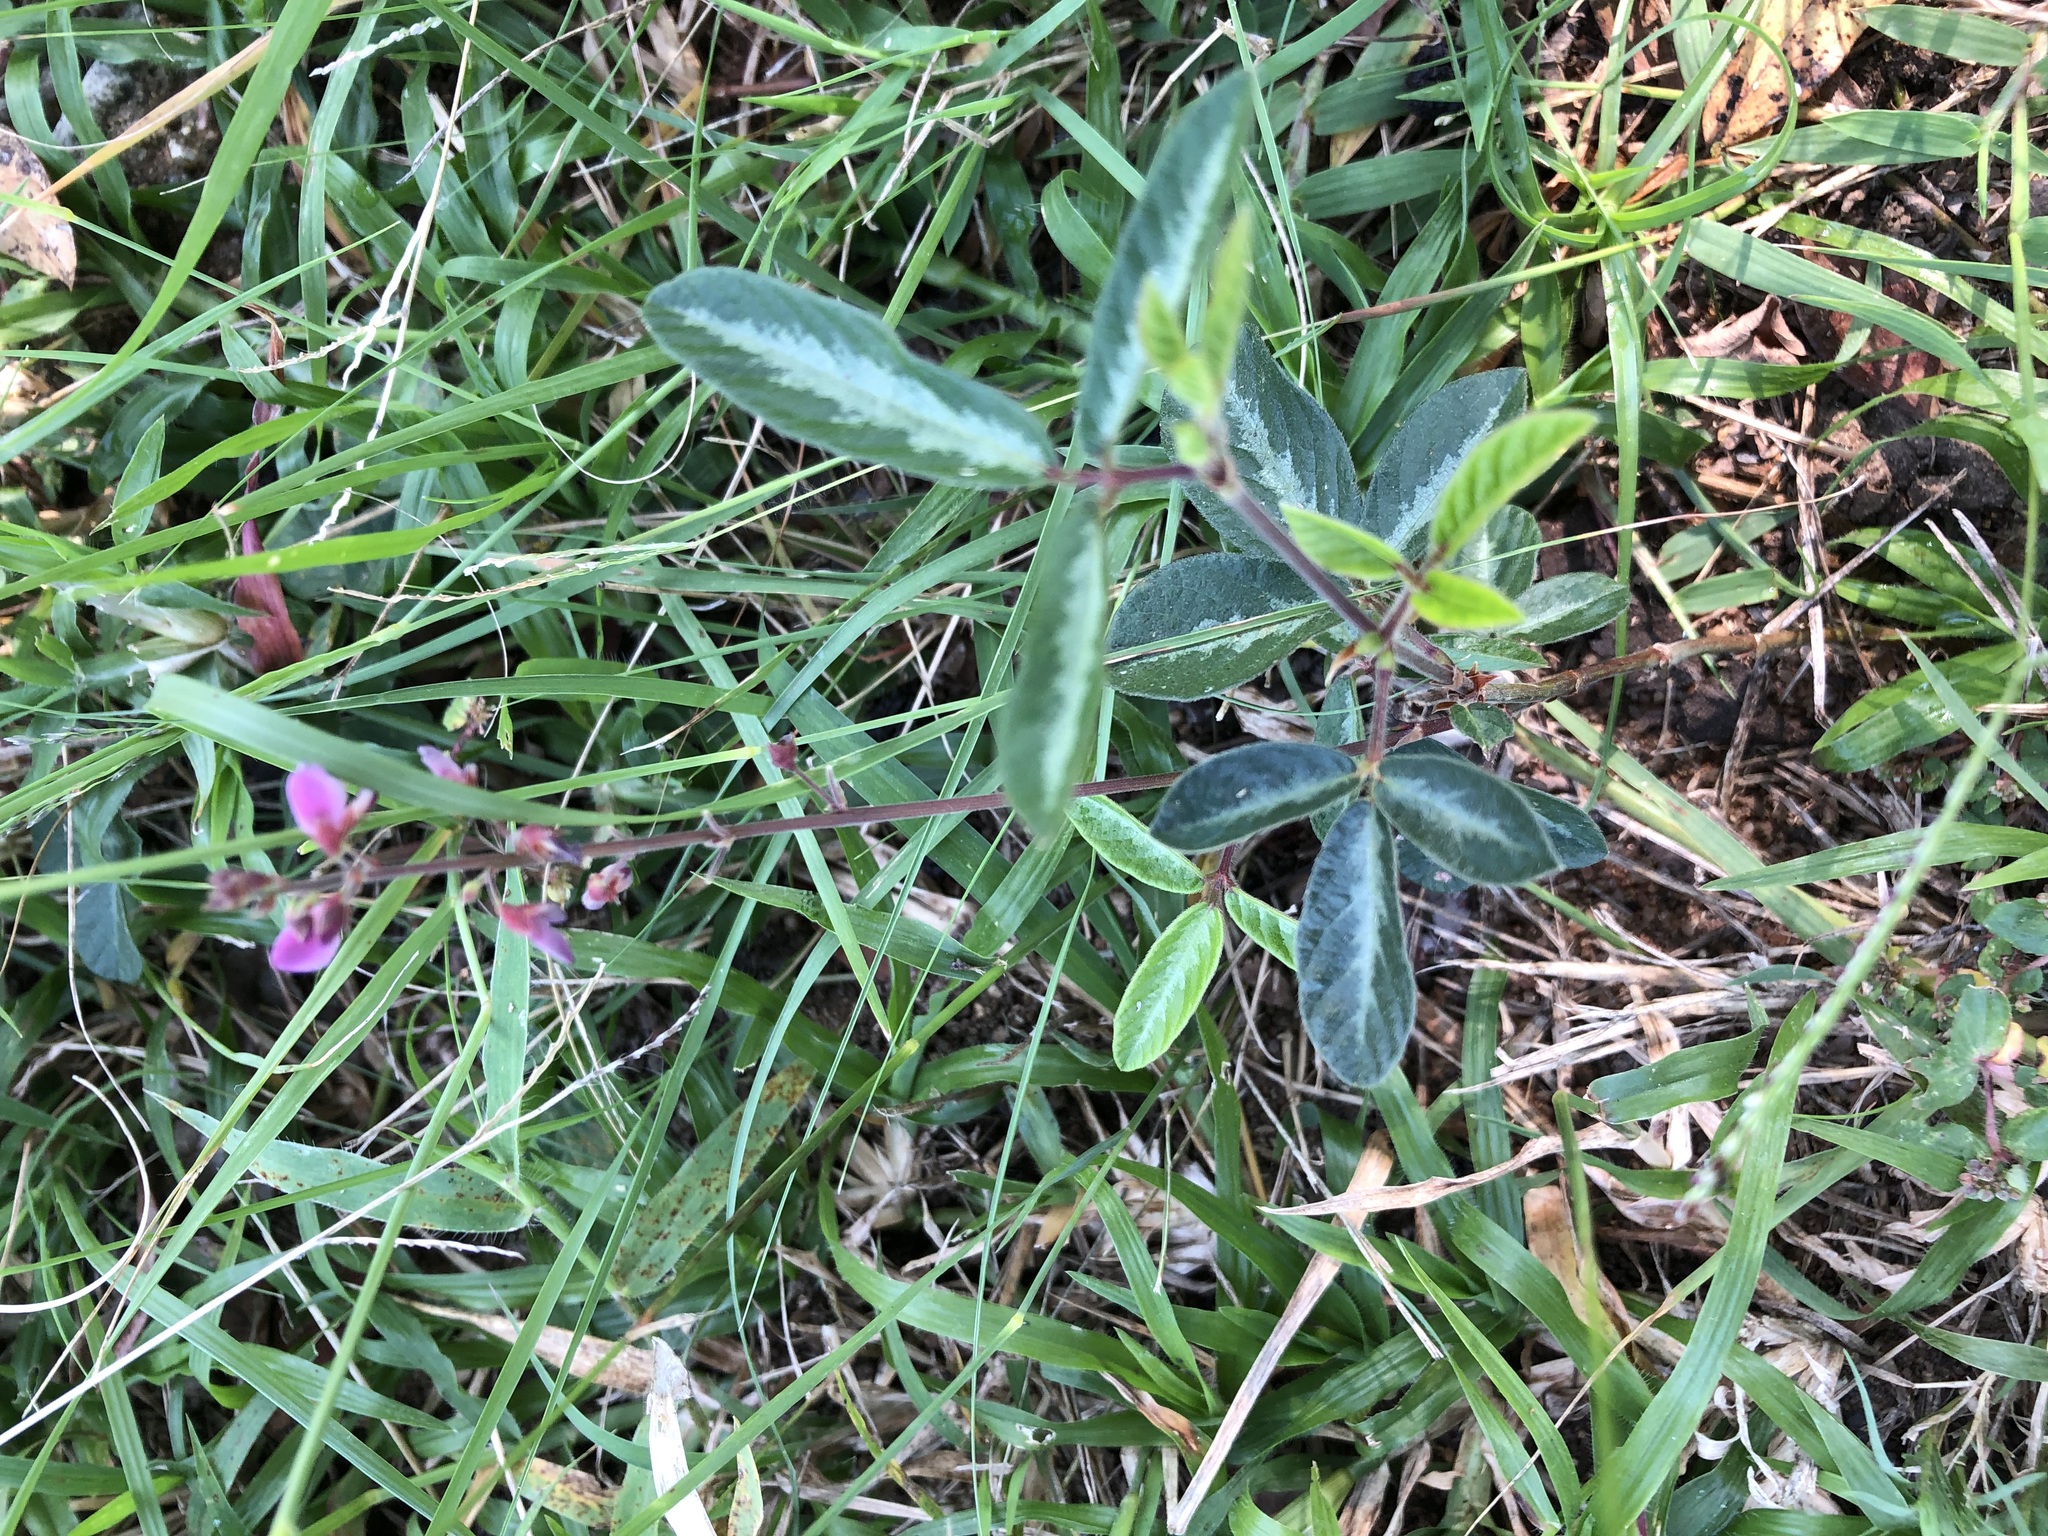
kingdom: Plantae
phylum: Tracheophyta
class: Magnoliopsida
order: Fabales
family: Fabaceae
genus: Desmodium
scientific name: Desmodium incanum
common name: Tickclover
